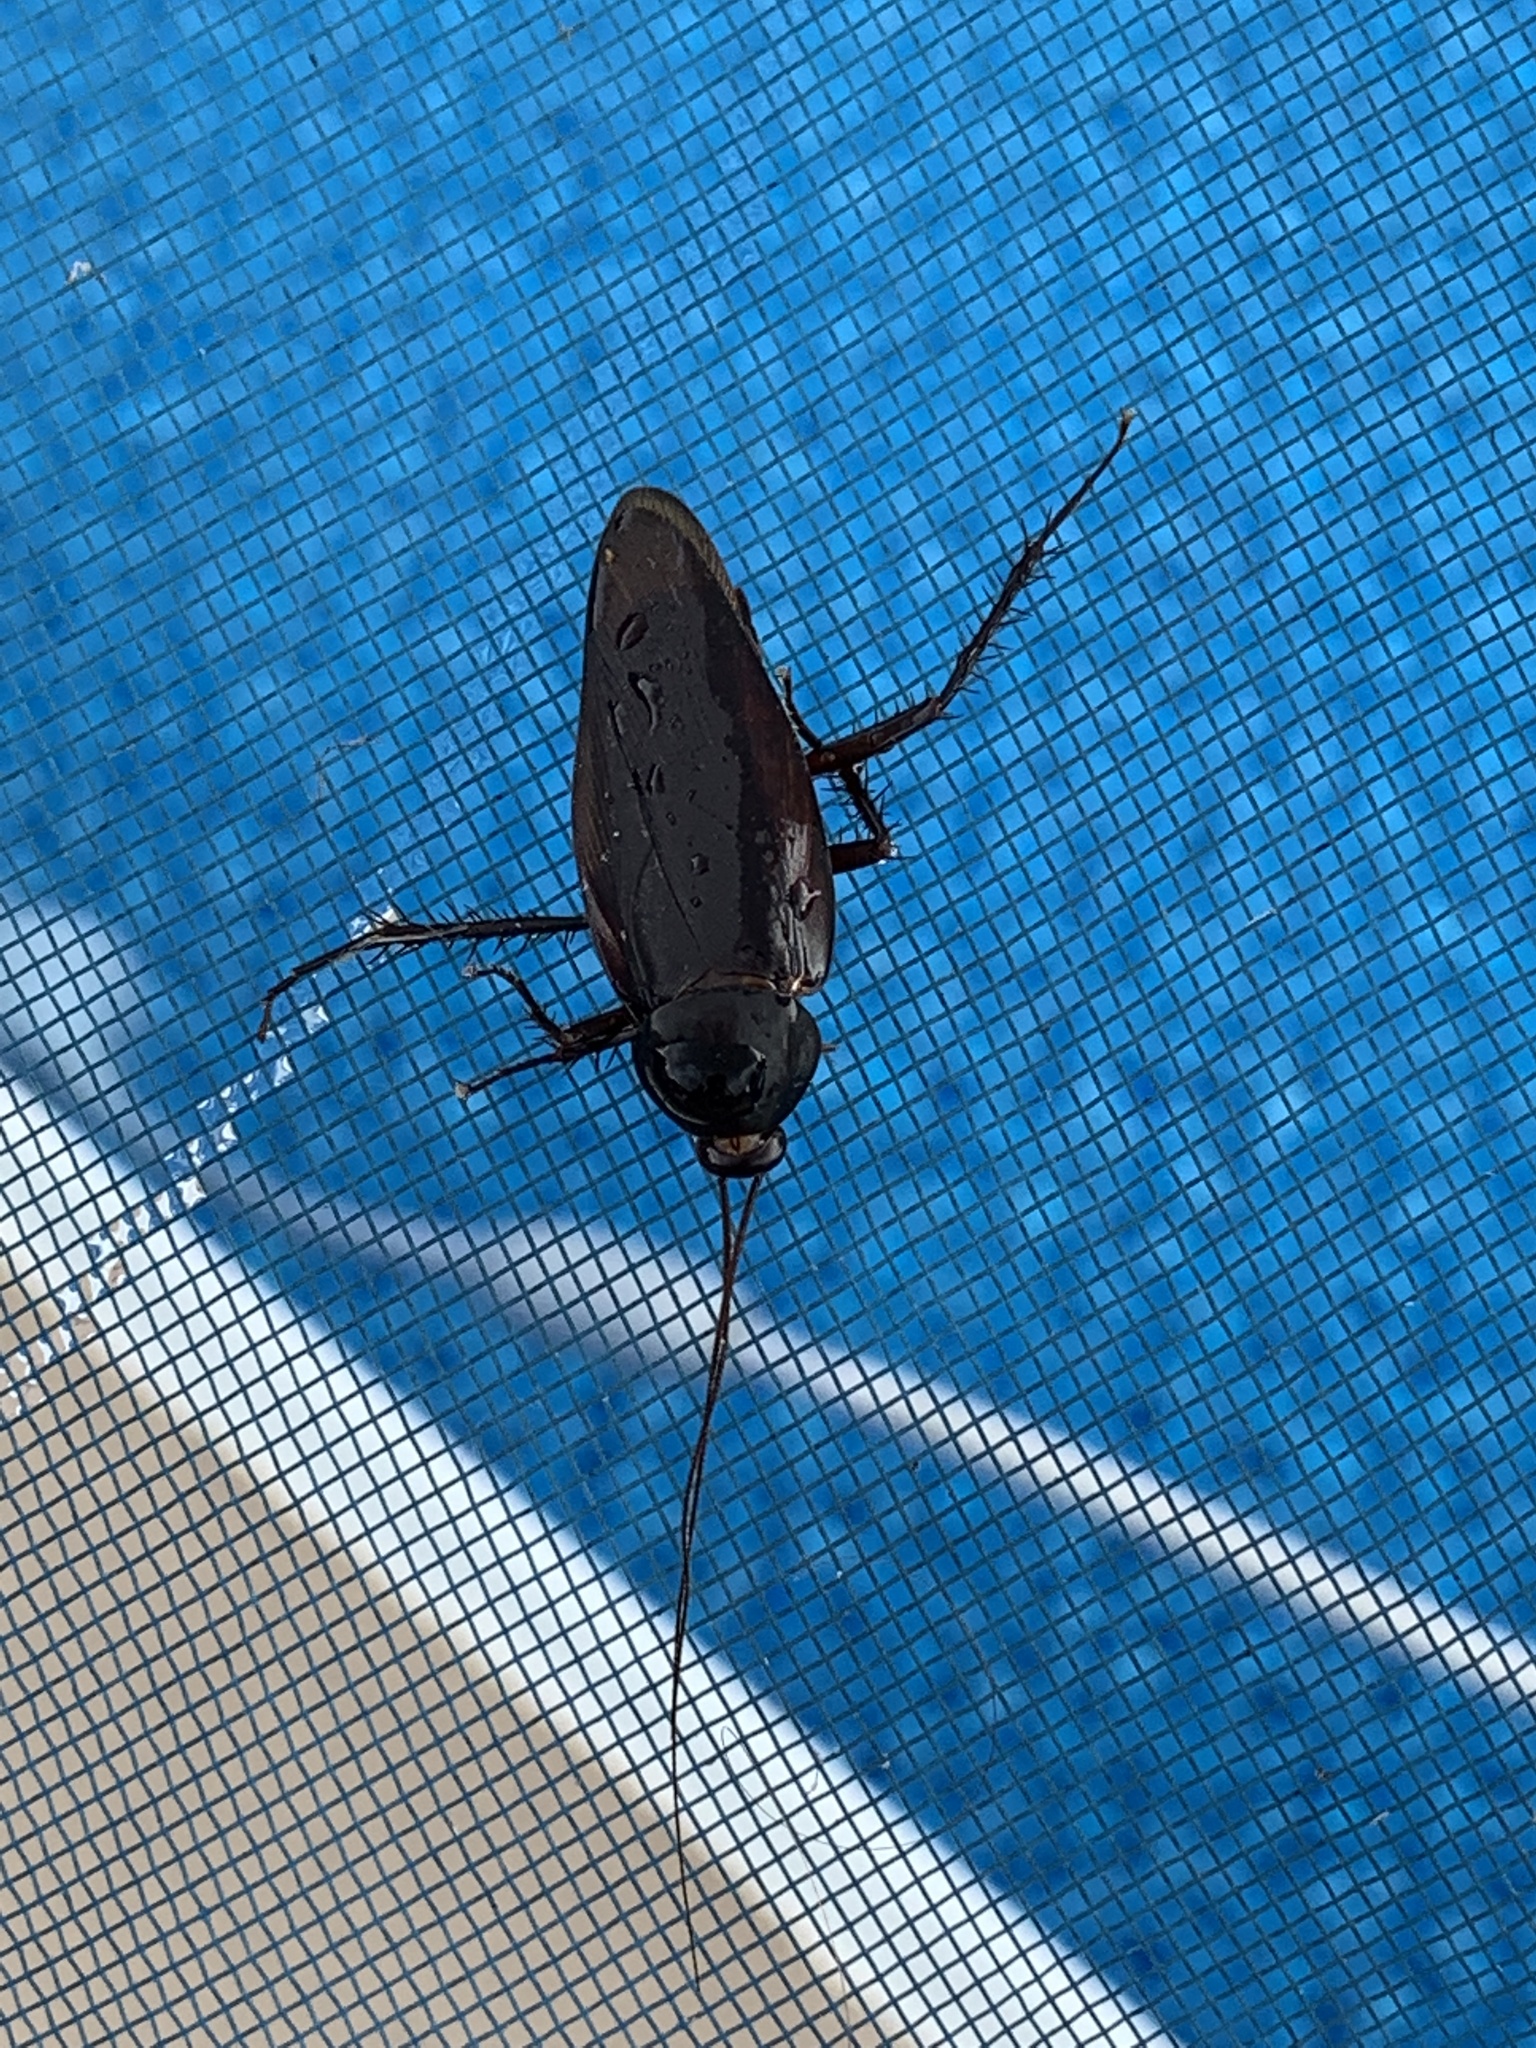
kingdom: Animalia
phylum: Arthropoda
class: Insecta
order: Blattodea
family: Blattidae
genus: Periplaneta
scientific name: Periplaneta fuliginosa
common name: Smokeybrown cockroad
